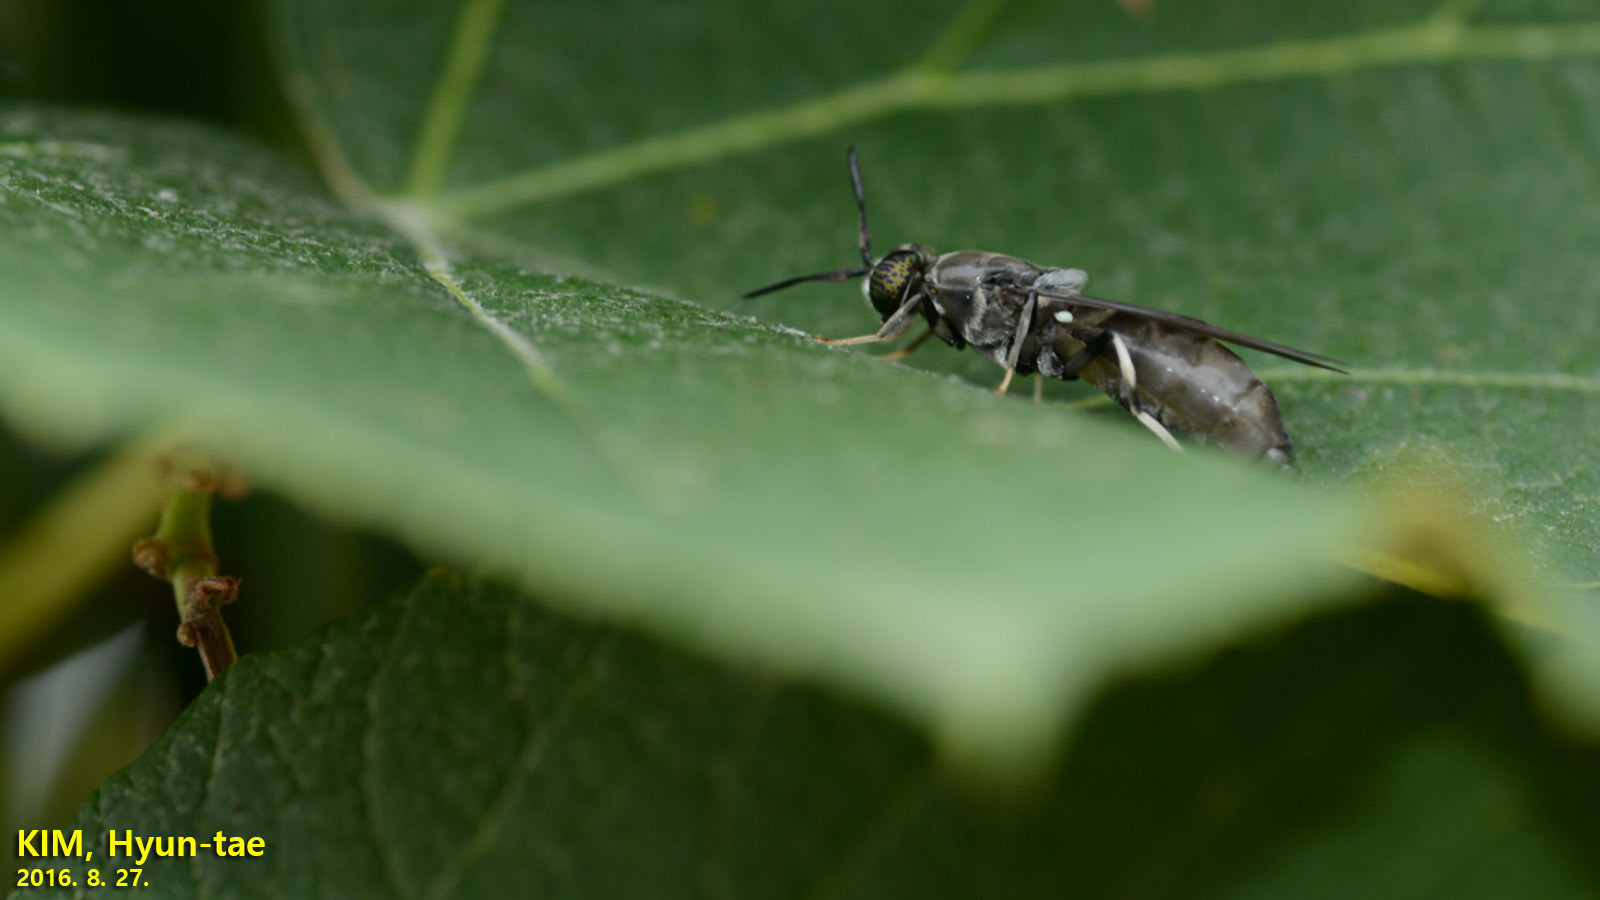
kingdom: Animalia
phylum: Arthropoda
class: Insecta
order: Diptera
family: Stratiomyidae
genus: Hermetia
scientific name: Hermetia illucens
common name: Black soldier fly
